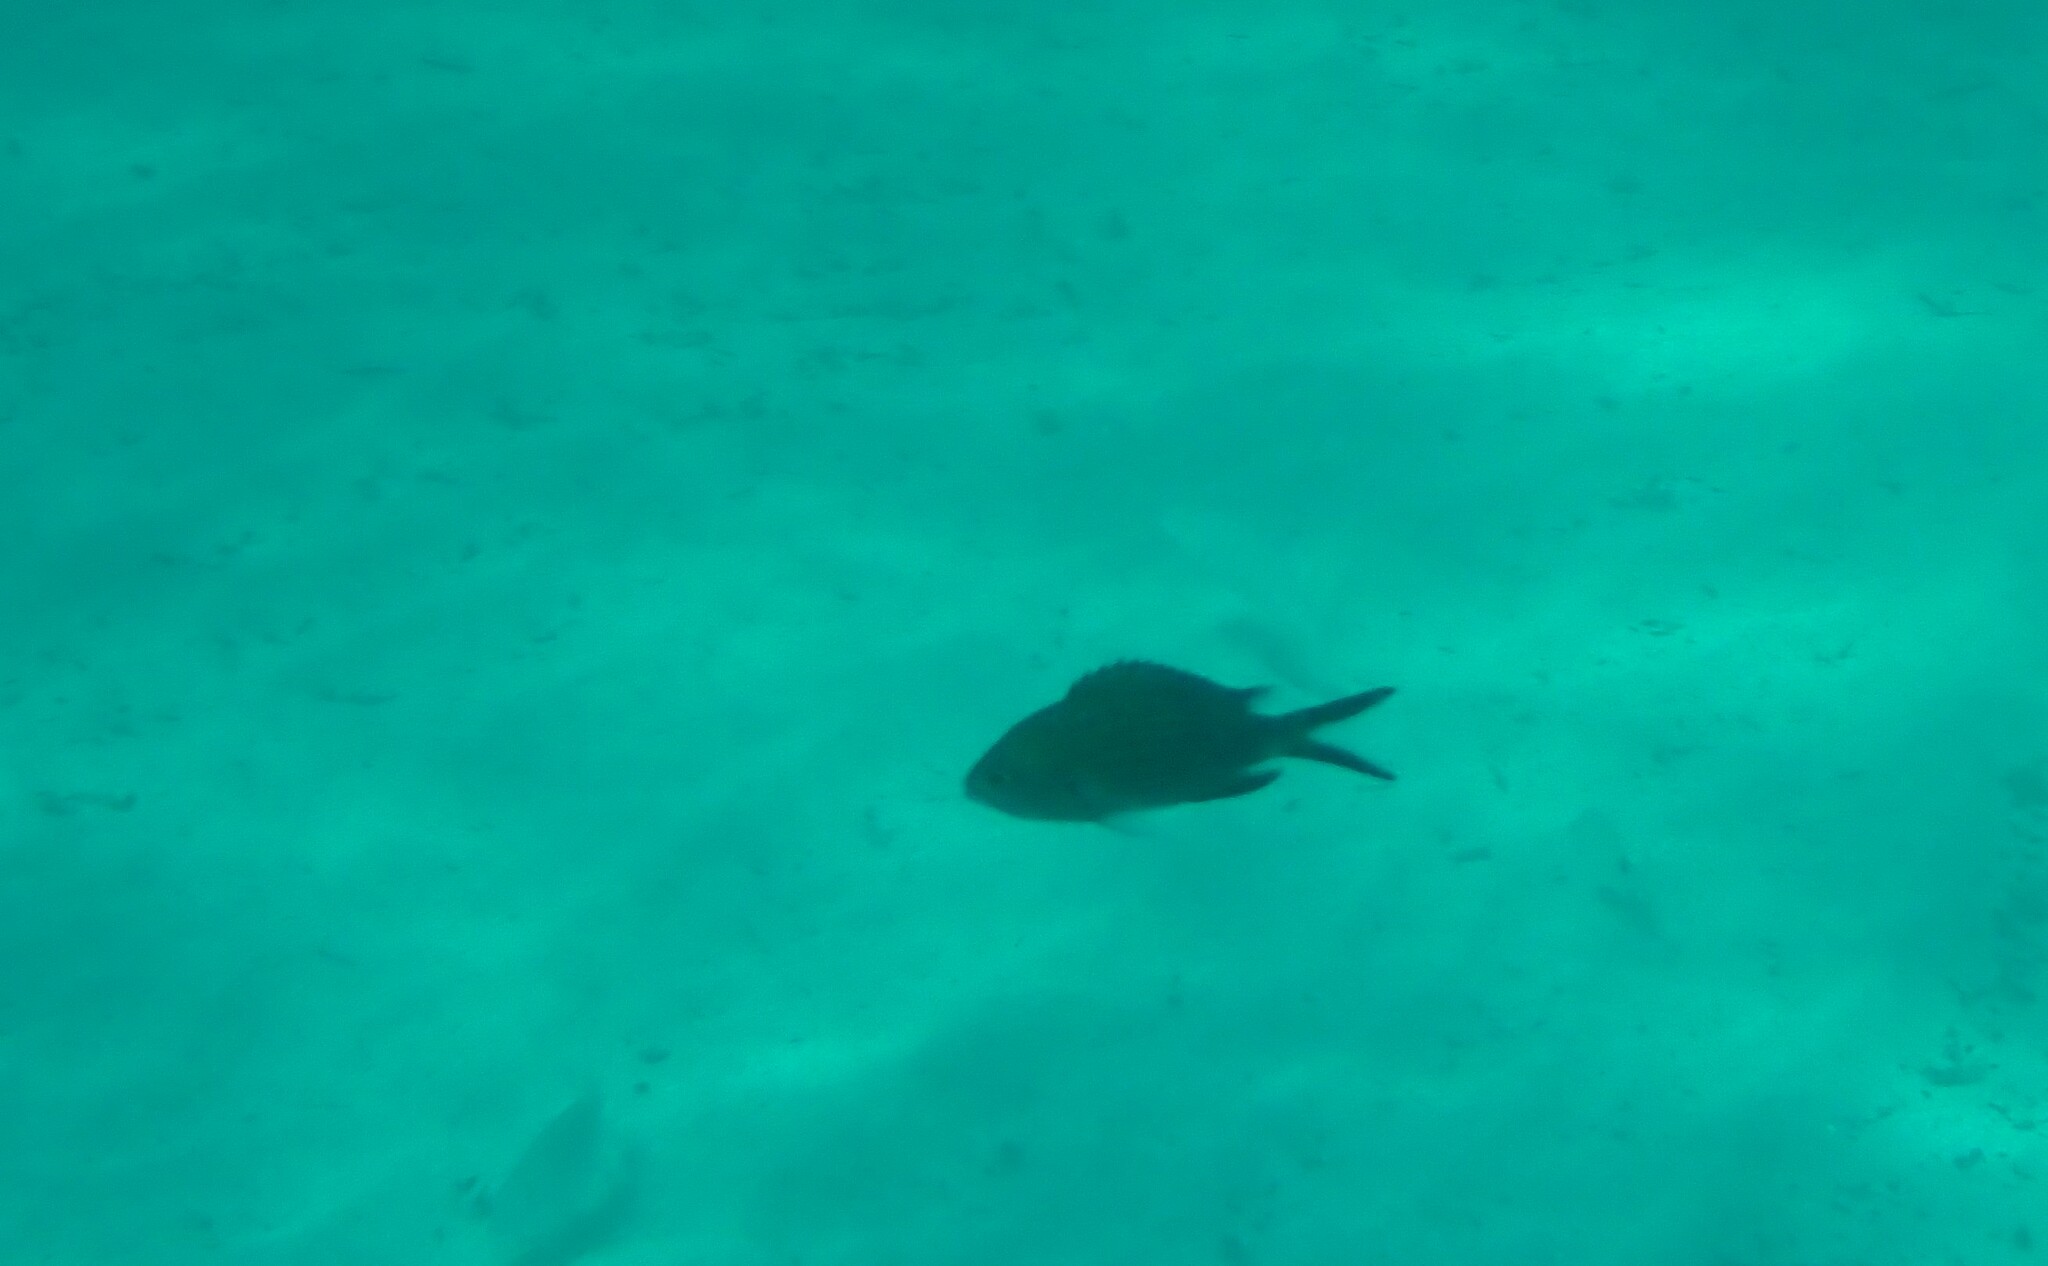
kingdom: Animalia
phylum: Chordata
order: Perciformes
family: Pomacentridae
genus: Chromis
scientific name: Chromis chromis
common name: Damselfish
